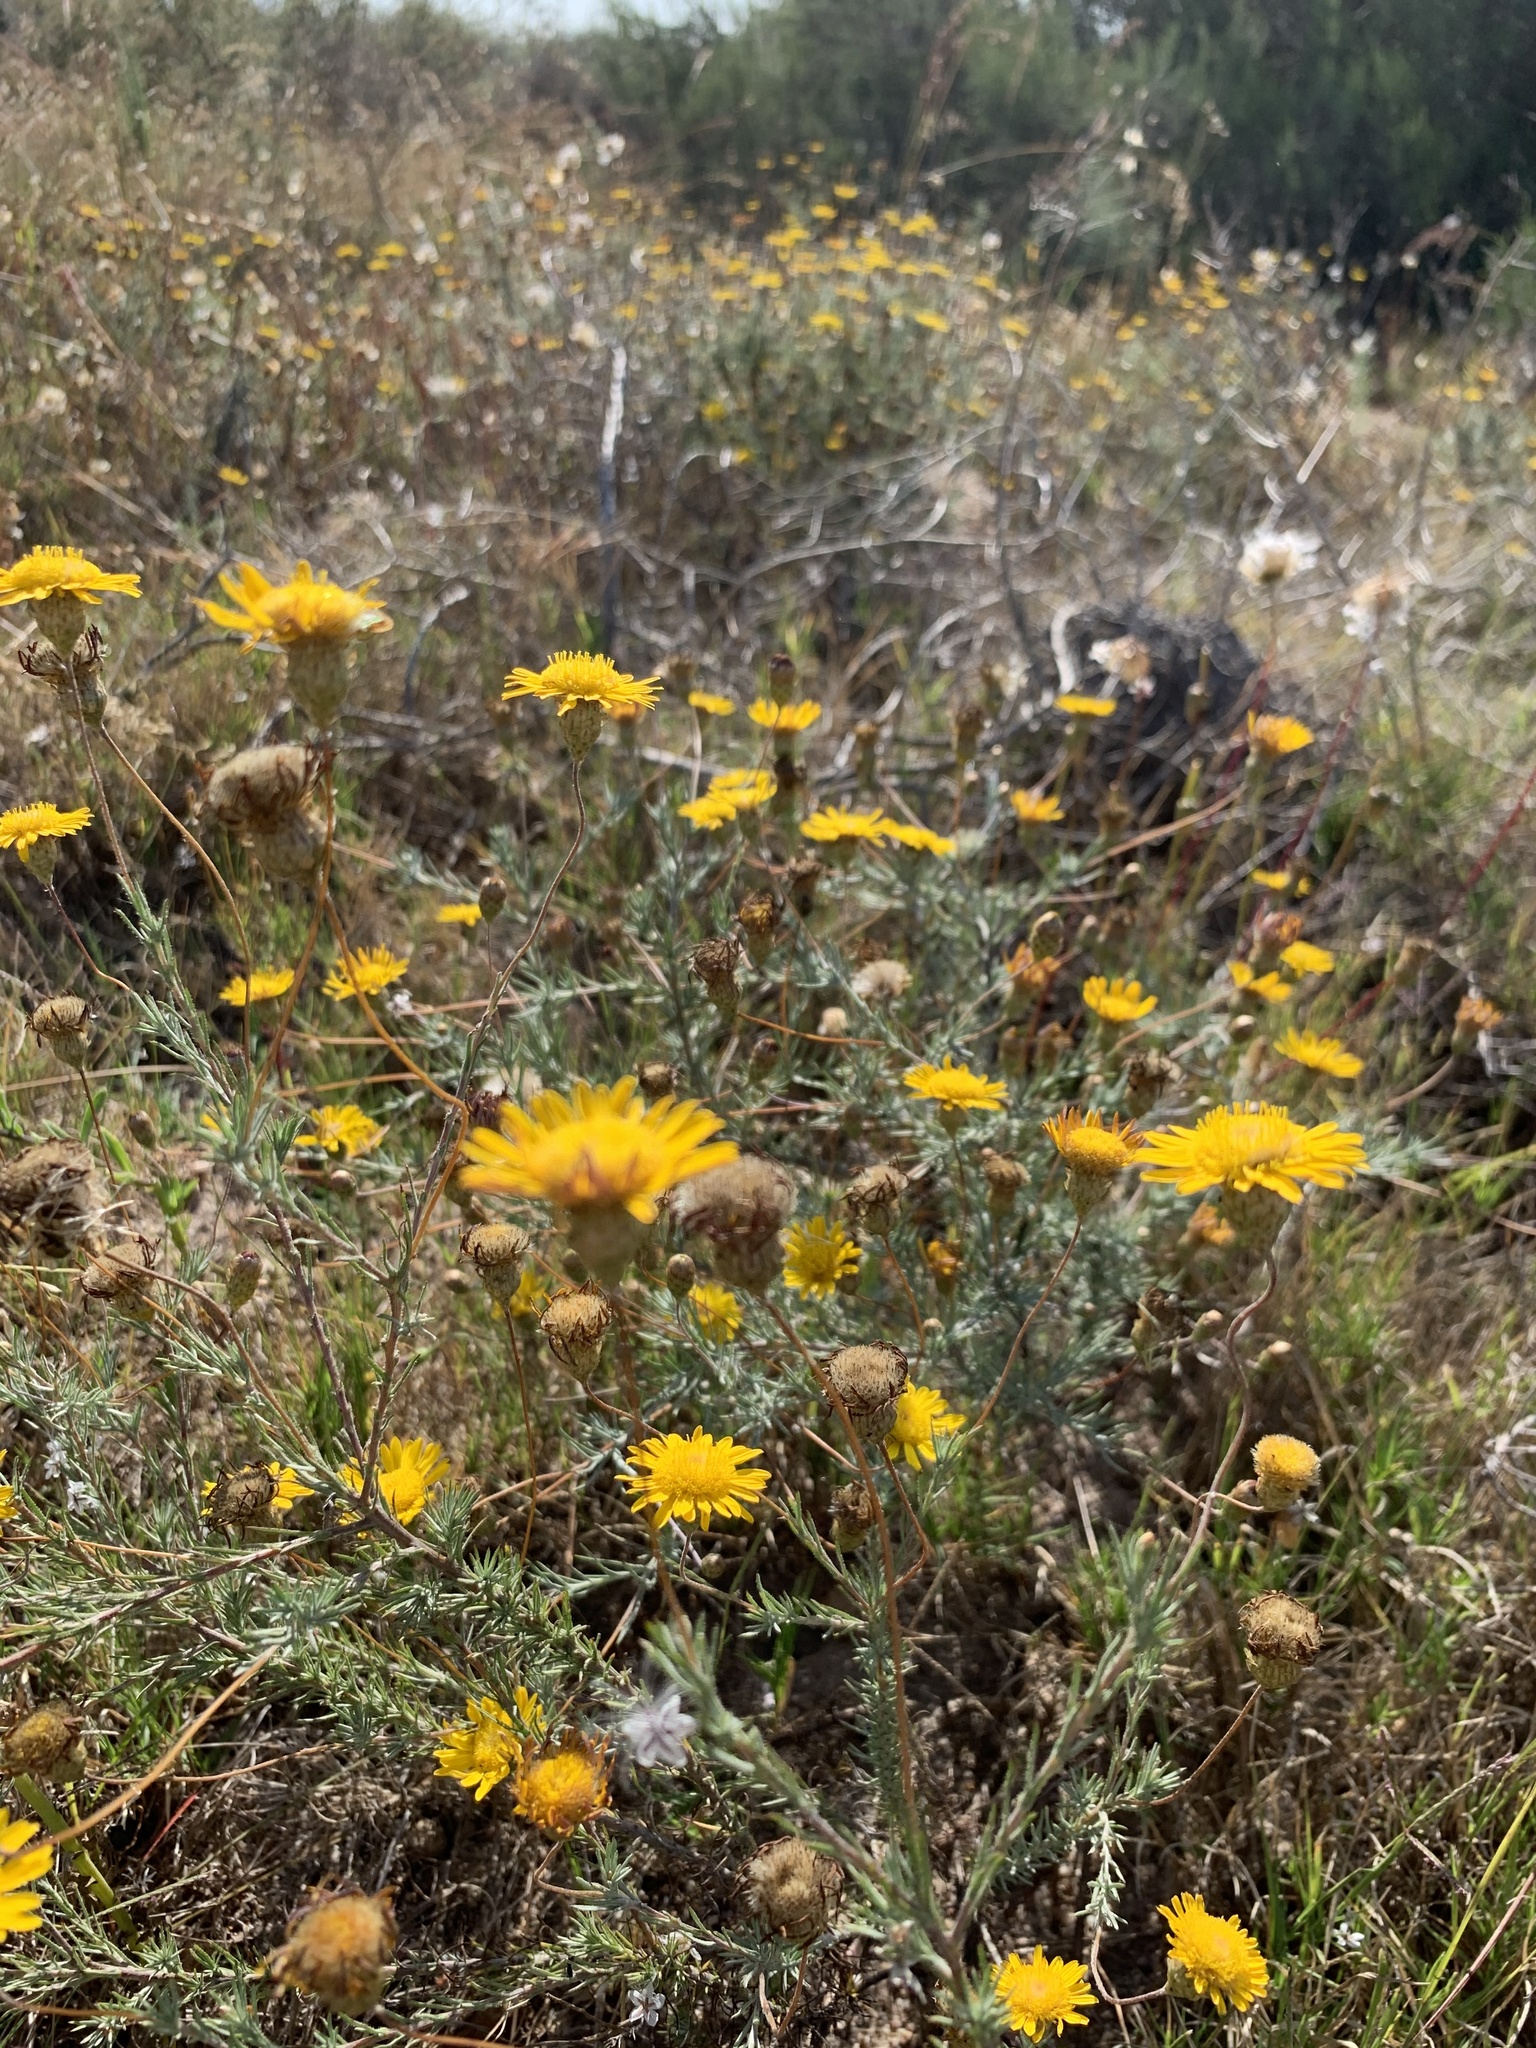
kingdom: Plantae
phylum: Tracheophyta
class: Magnoliopsida
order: Asterales
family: Asteraceae
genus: Leysera
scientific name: Leysera gnaphalodes
